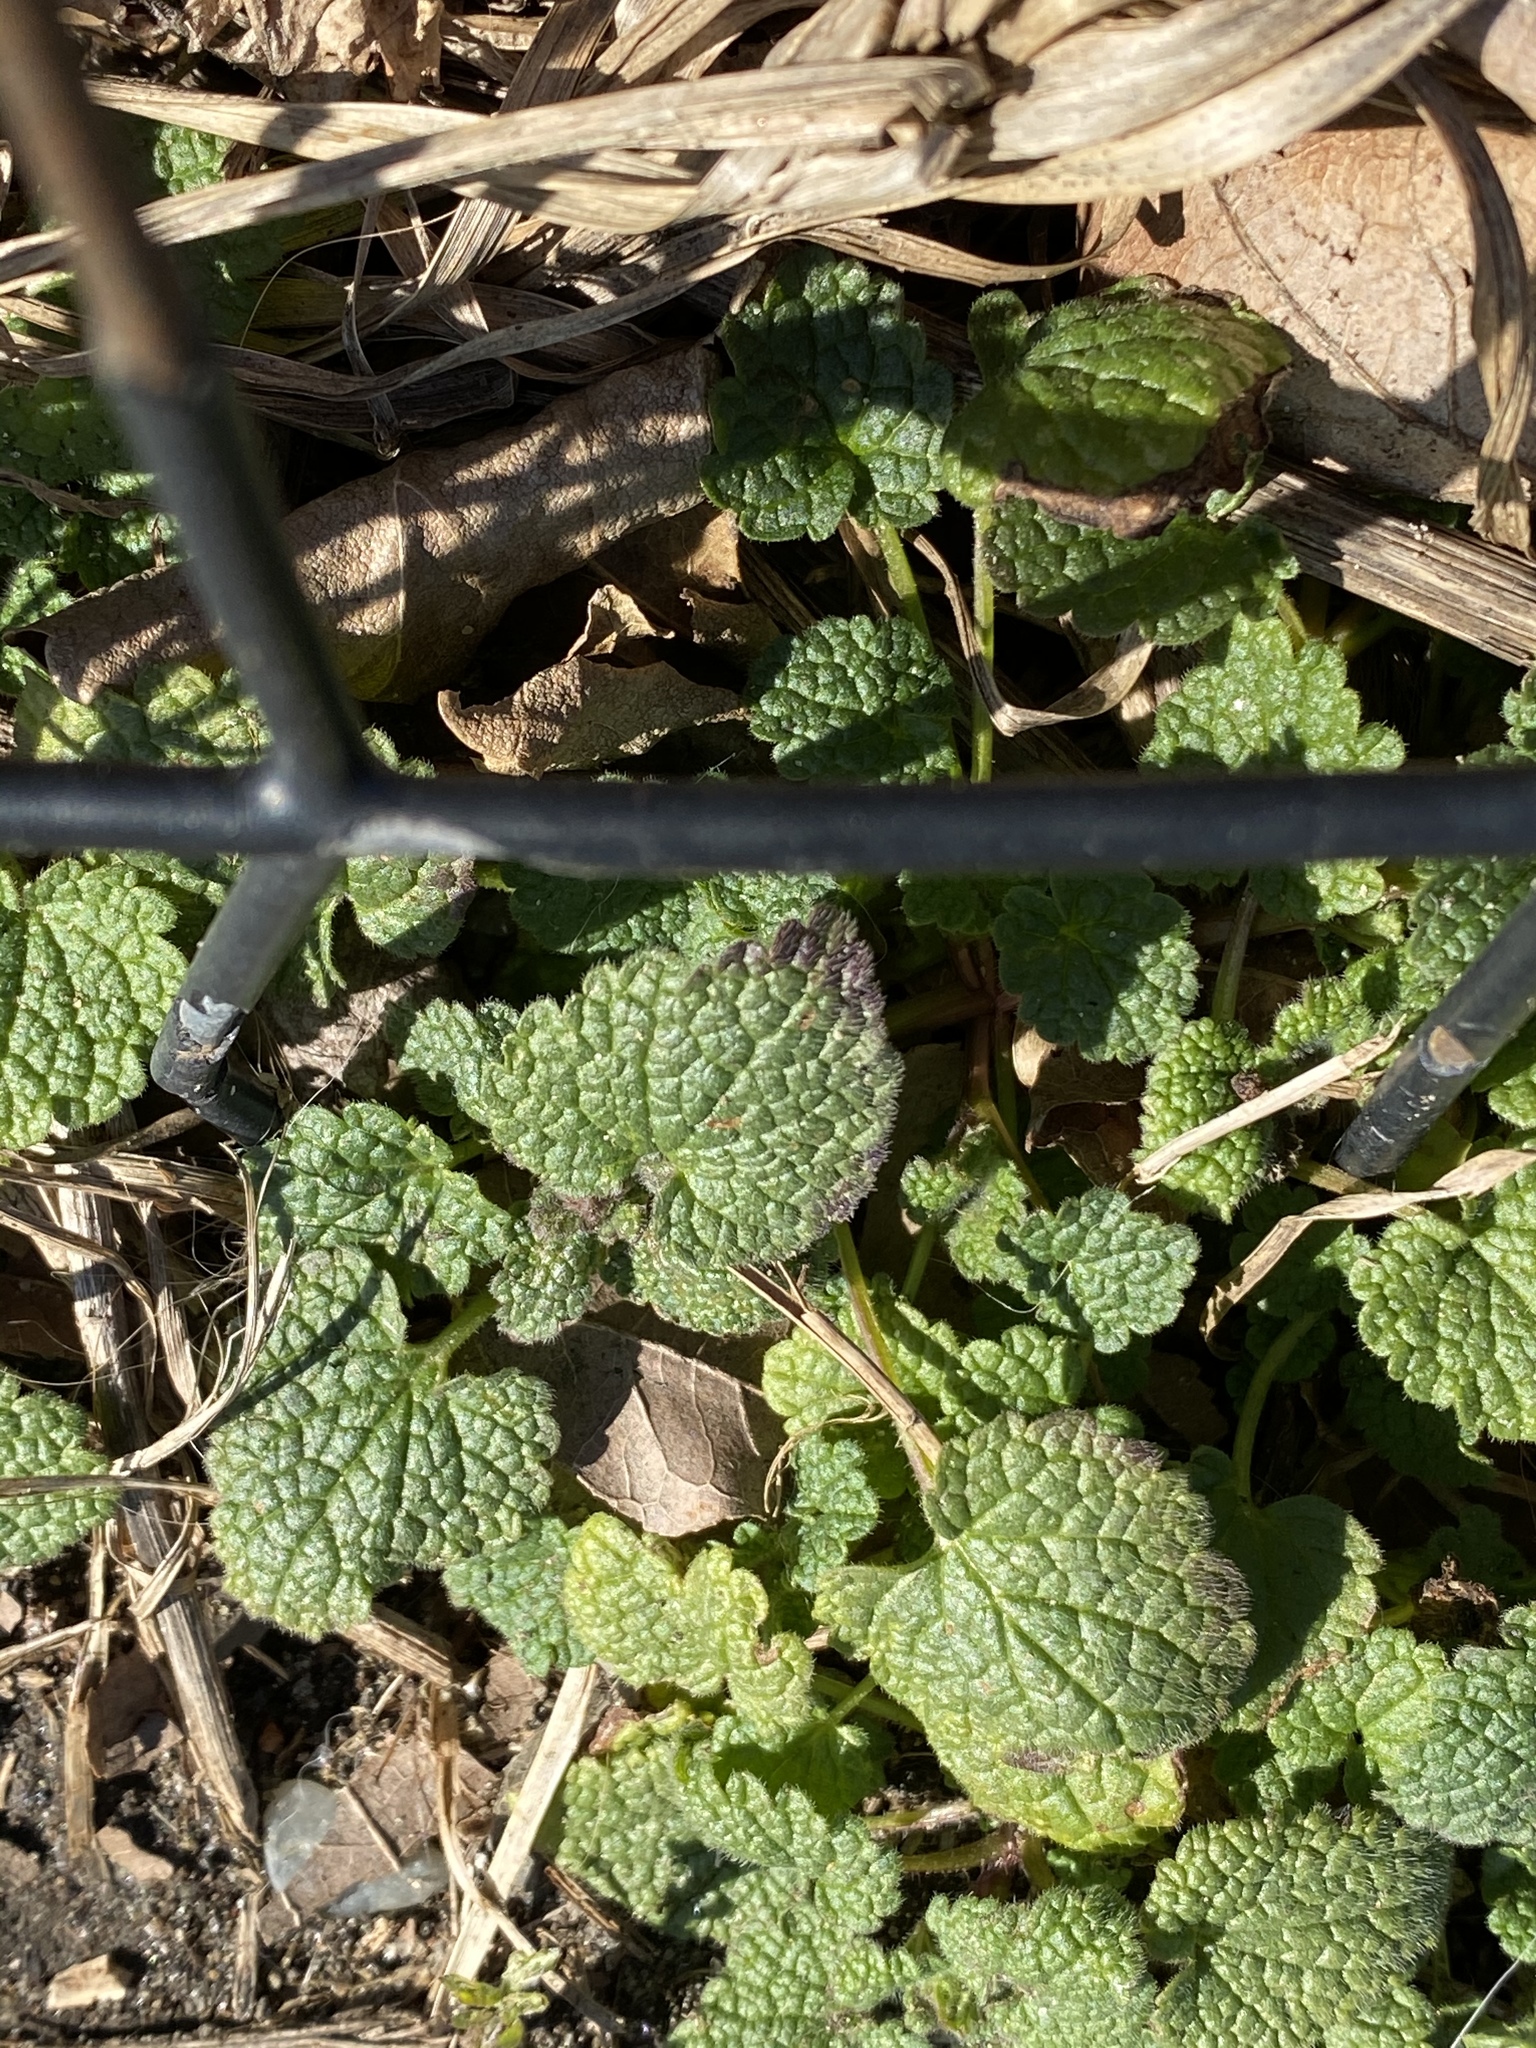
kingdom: Plantae
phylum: Tracheophyta
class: Magnoliopsida
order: Lamiales
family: Lamiaceae
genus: Lamium
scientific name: Lamium purpureum
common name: Red dead-nettle
